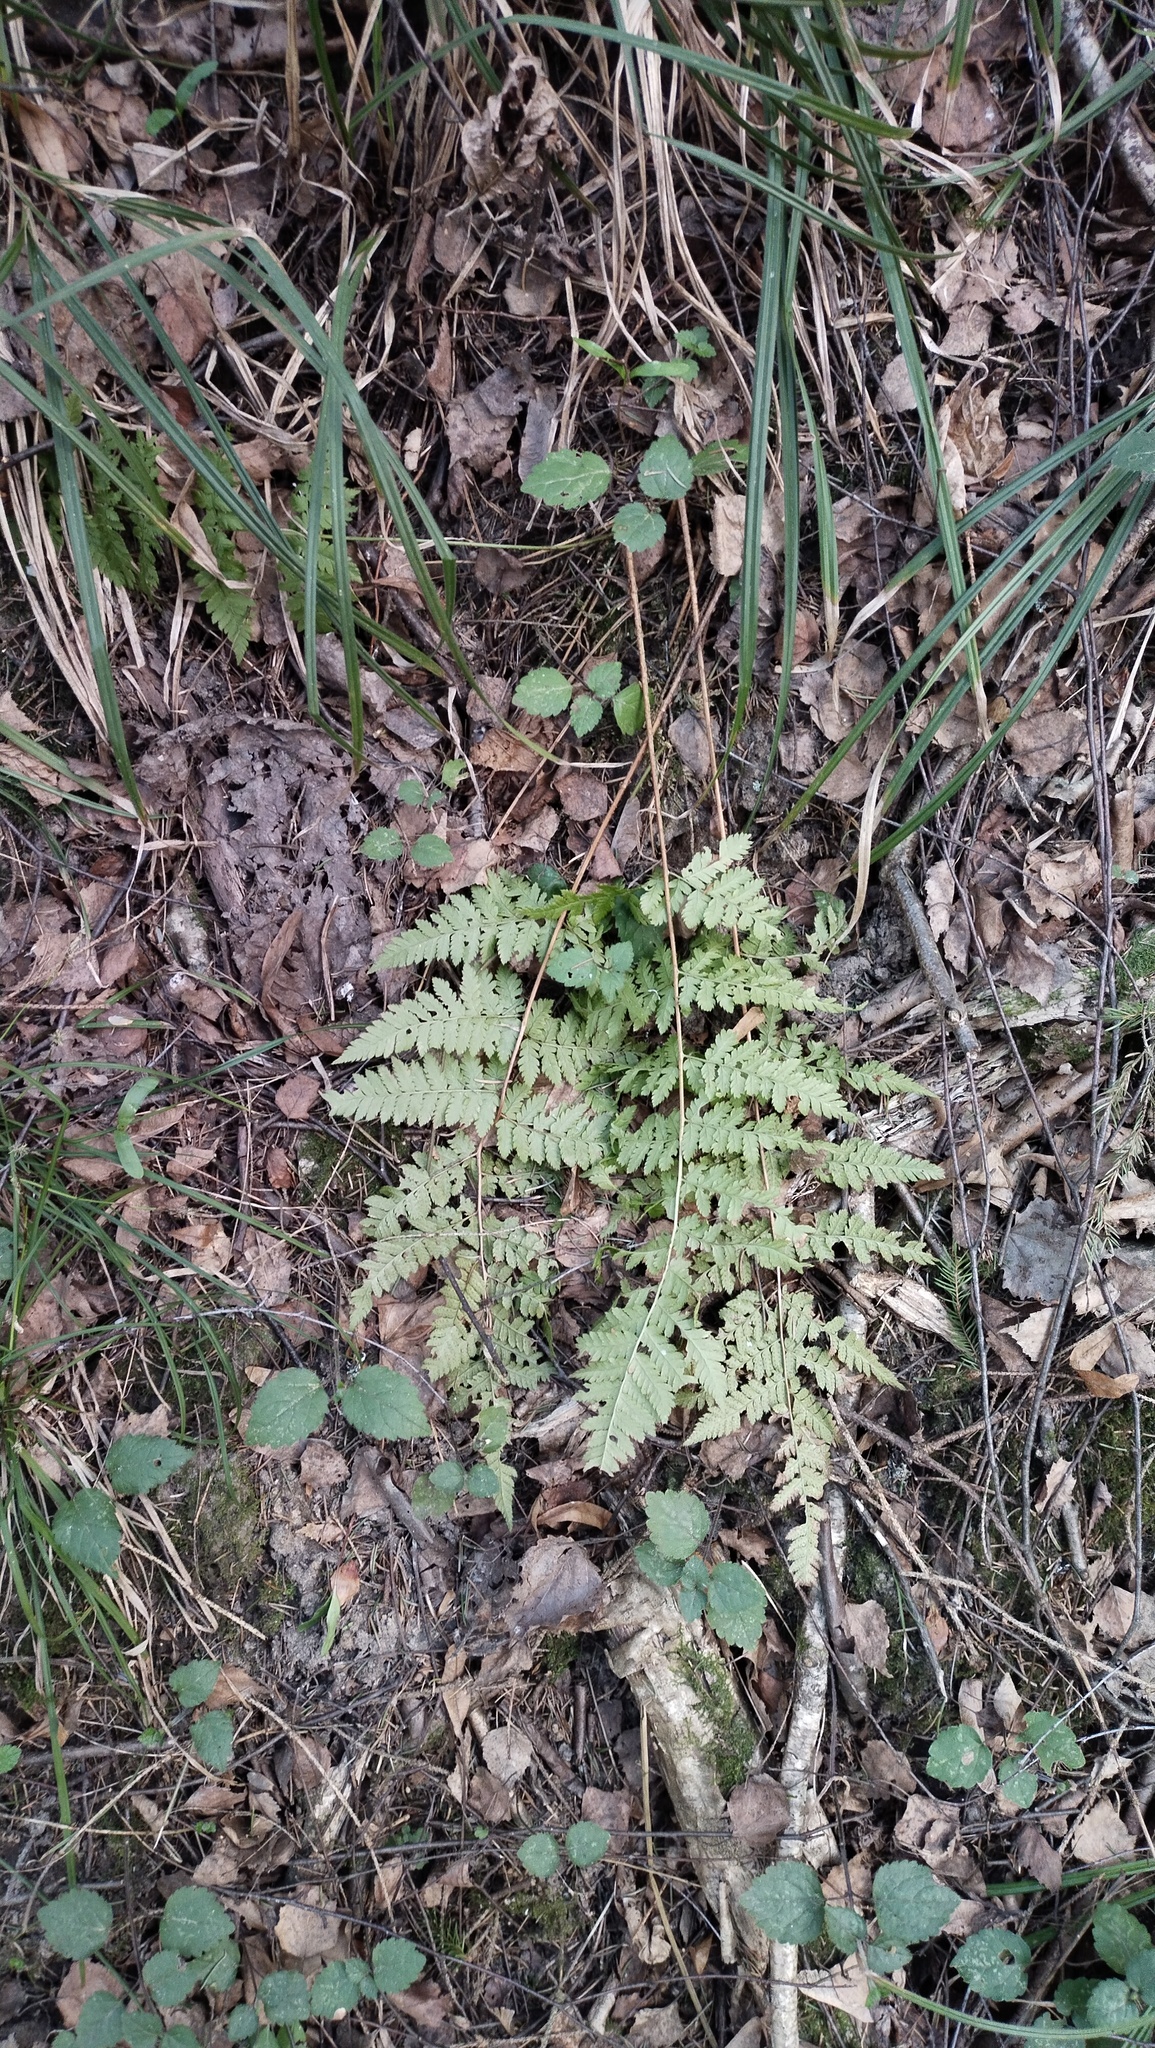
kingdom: Plantae
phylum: Tracheophyta
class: Polypodiopsida
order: Polypodiales
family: Dryopteridaceae
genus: Dryopteris
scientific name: Dryopteris carthusiana
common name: Narrow buckler-fern
